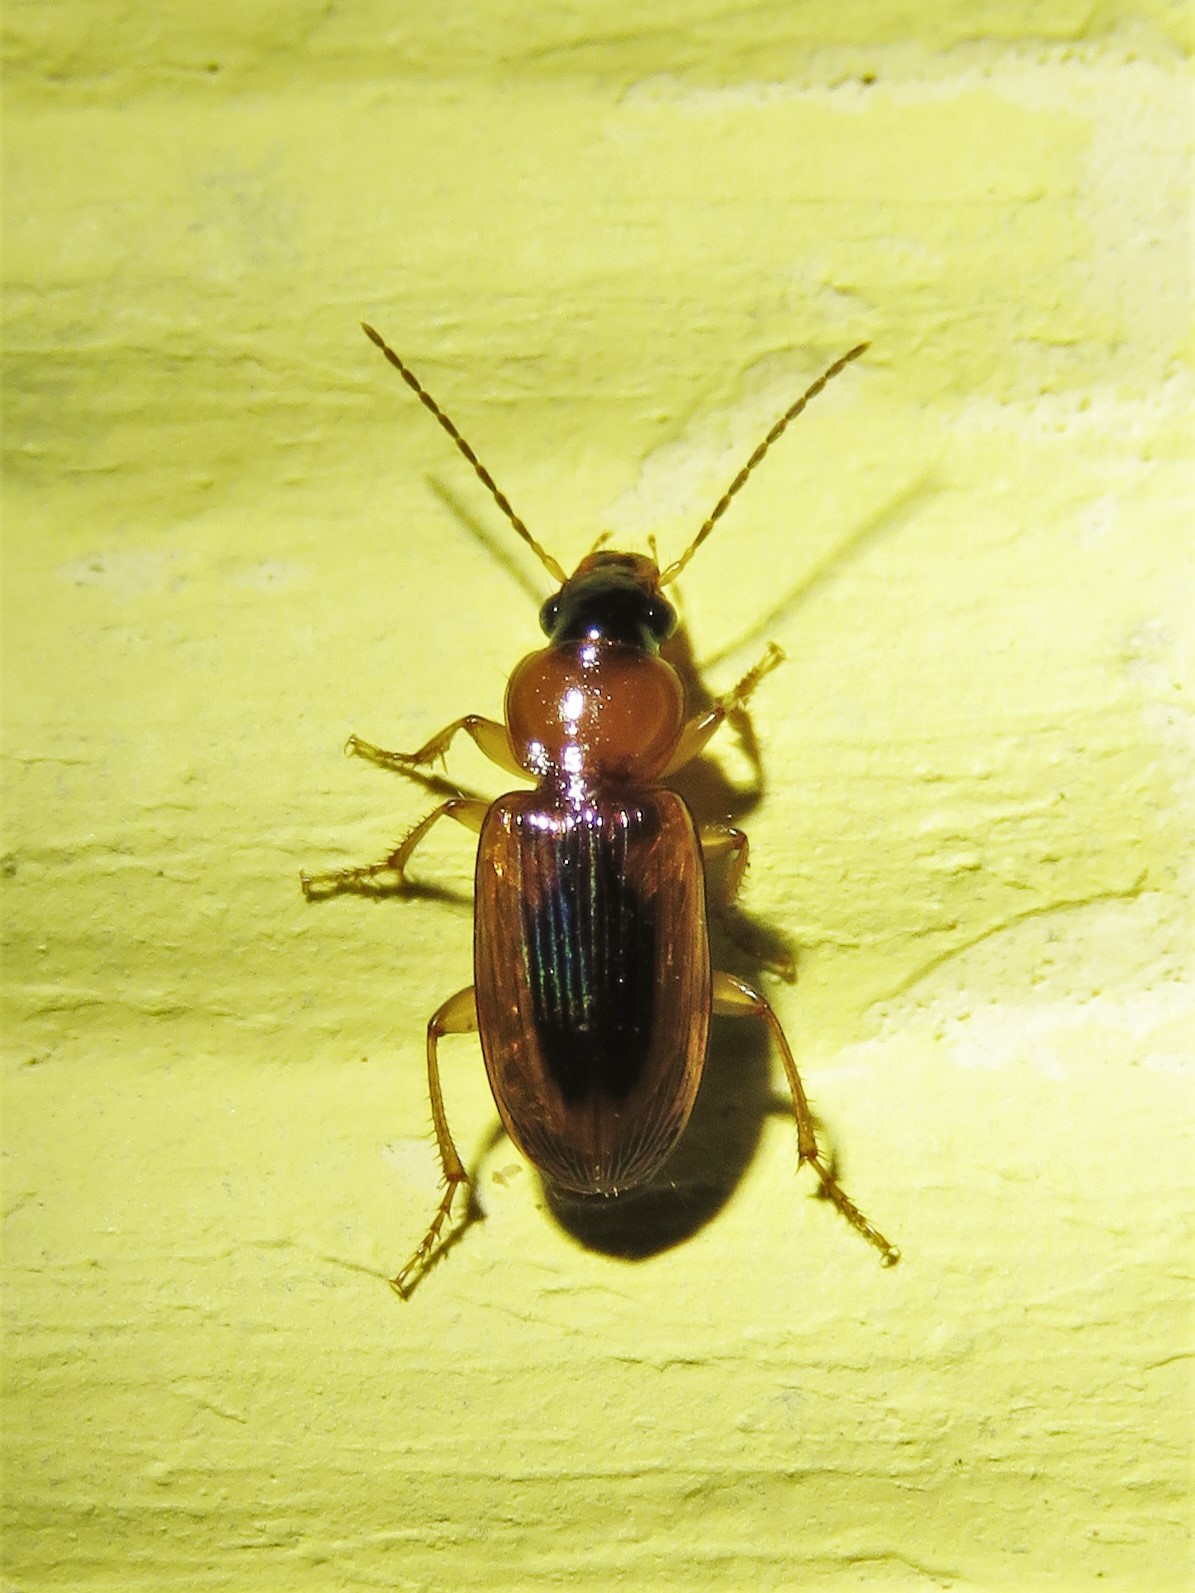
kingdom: Animalia
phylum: Arthropoda
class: Insecta
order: Coleoptera
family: Carabidae
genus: Stenolophus
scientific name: Stenolophus dissimilis
